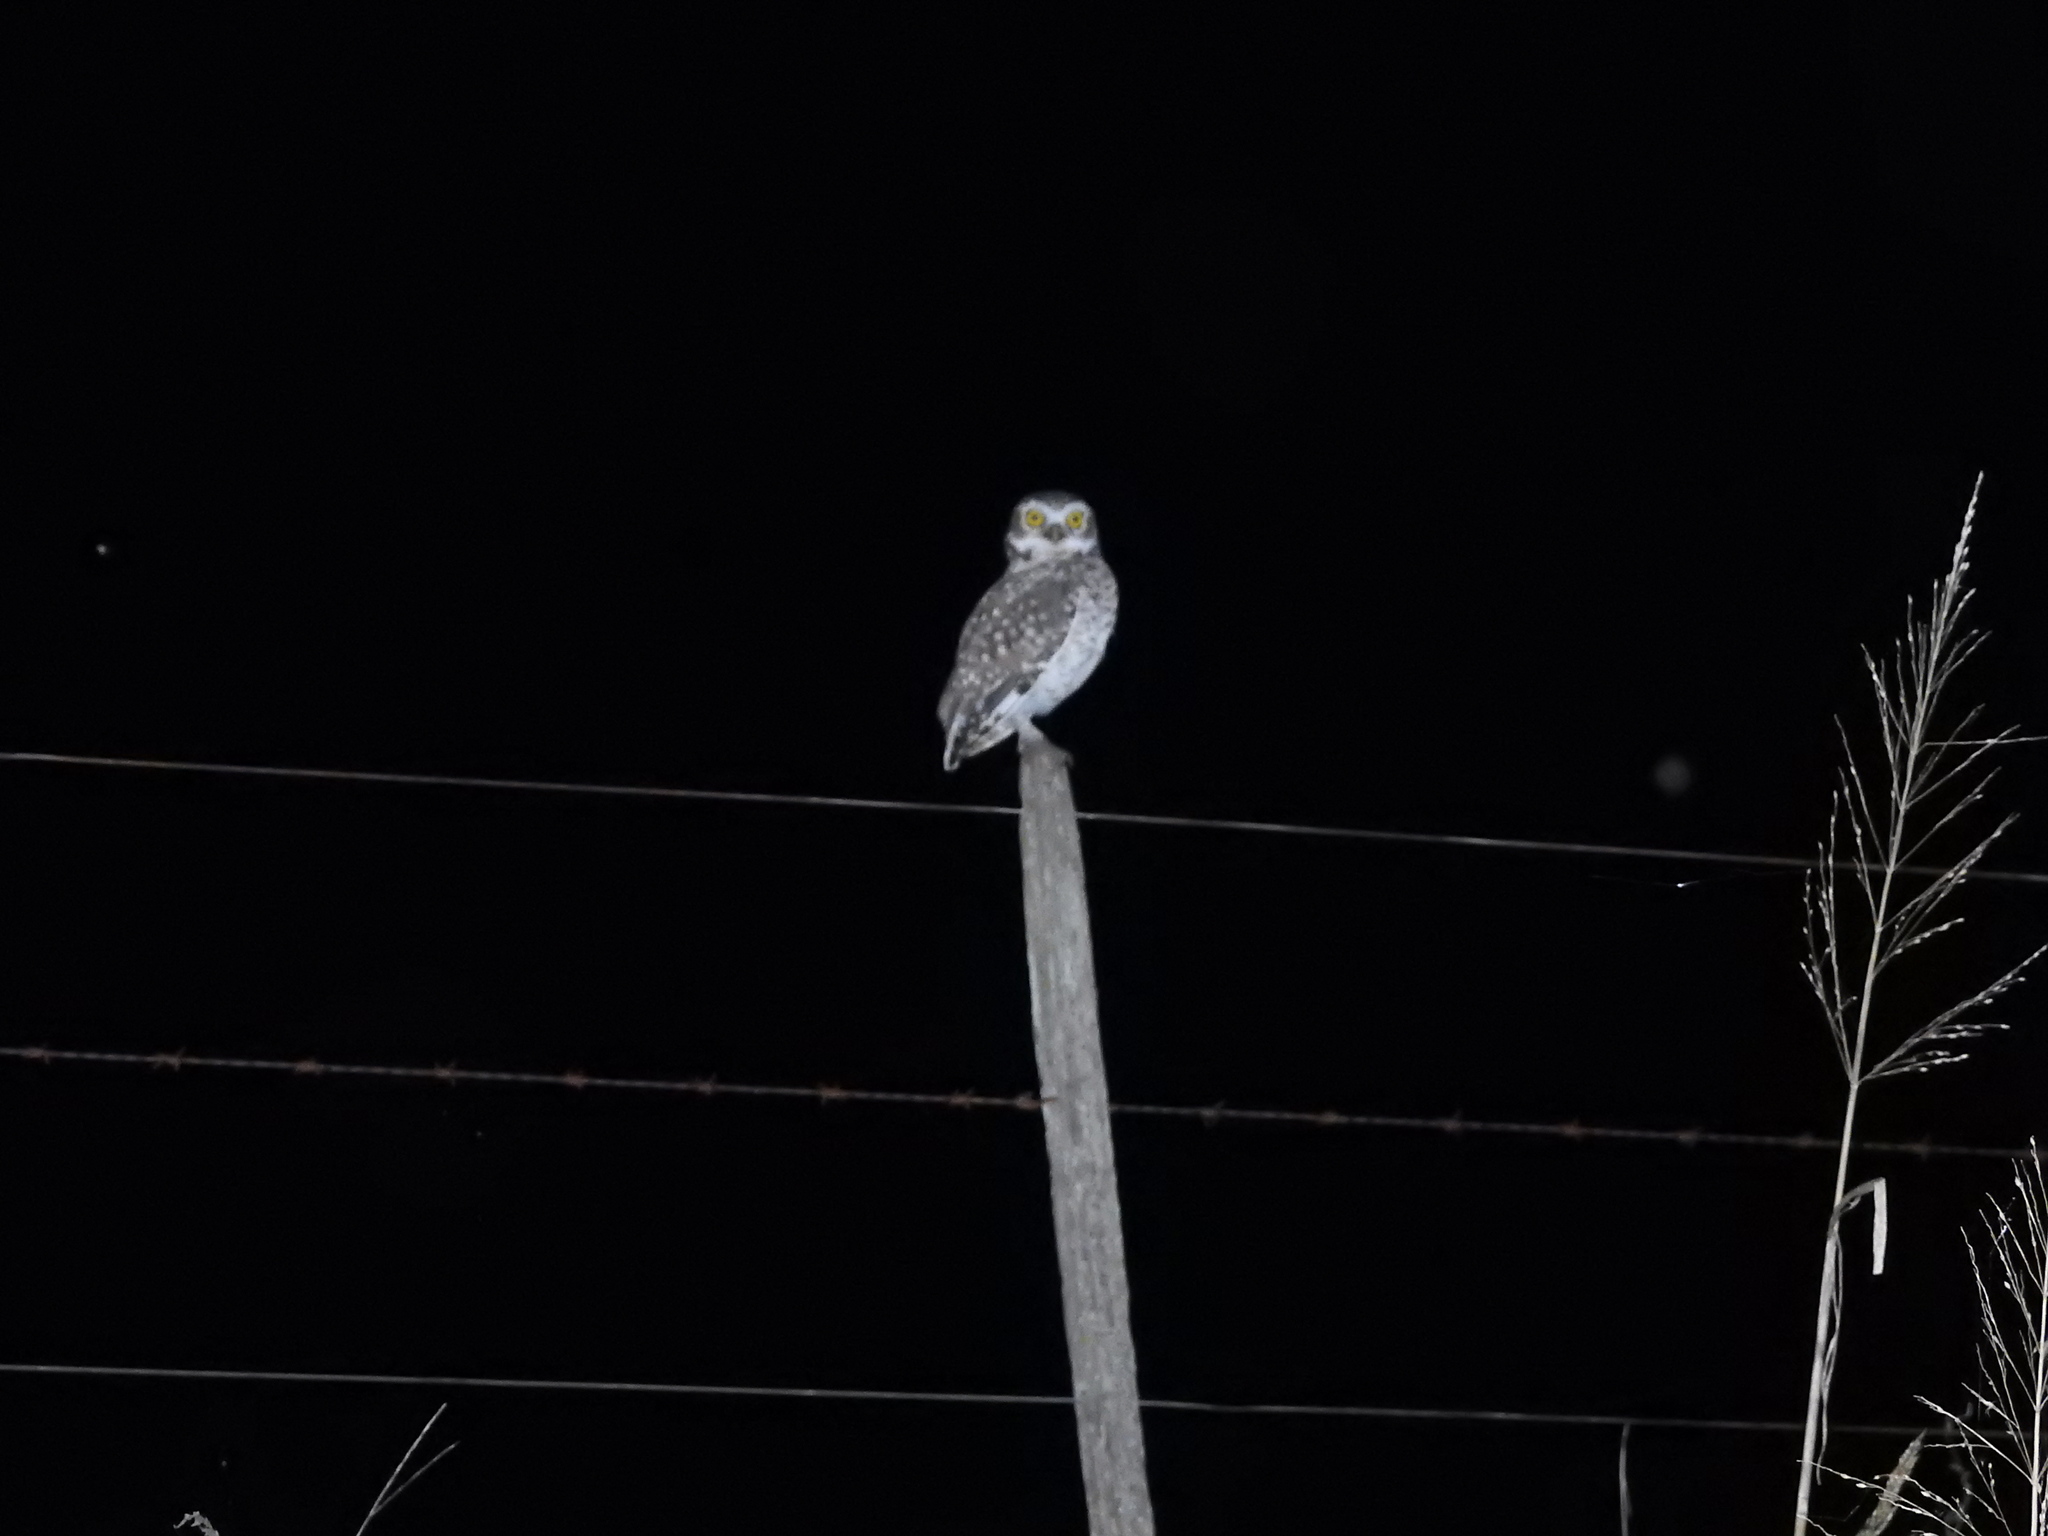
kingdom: Animalia
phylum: Chordata
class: Aves
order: Strigiformes
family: Strigidae
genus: Athene
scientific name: Athene cunicularia
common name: Burrowing owl
